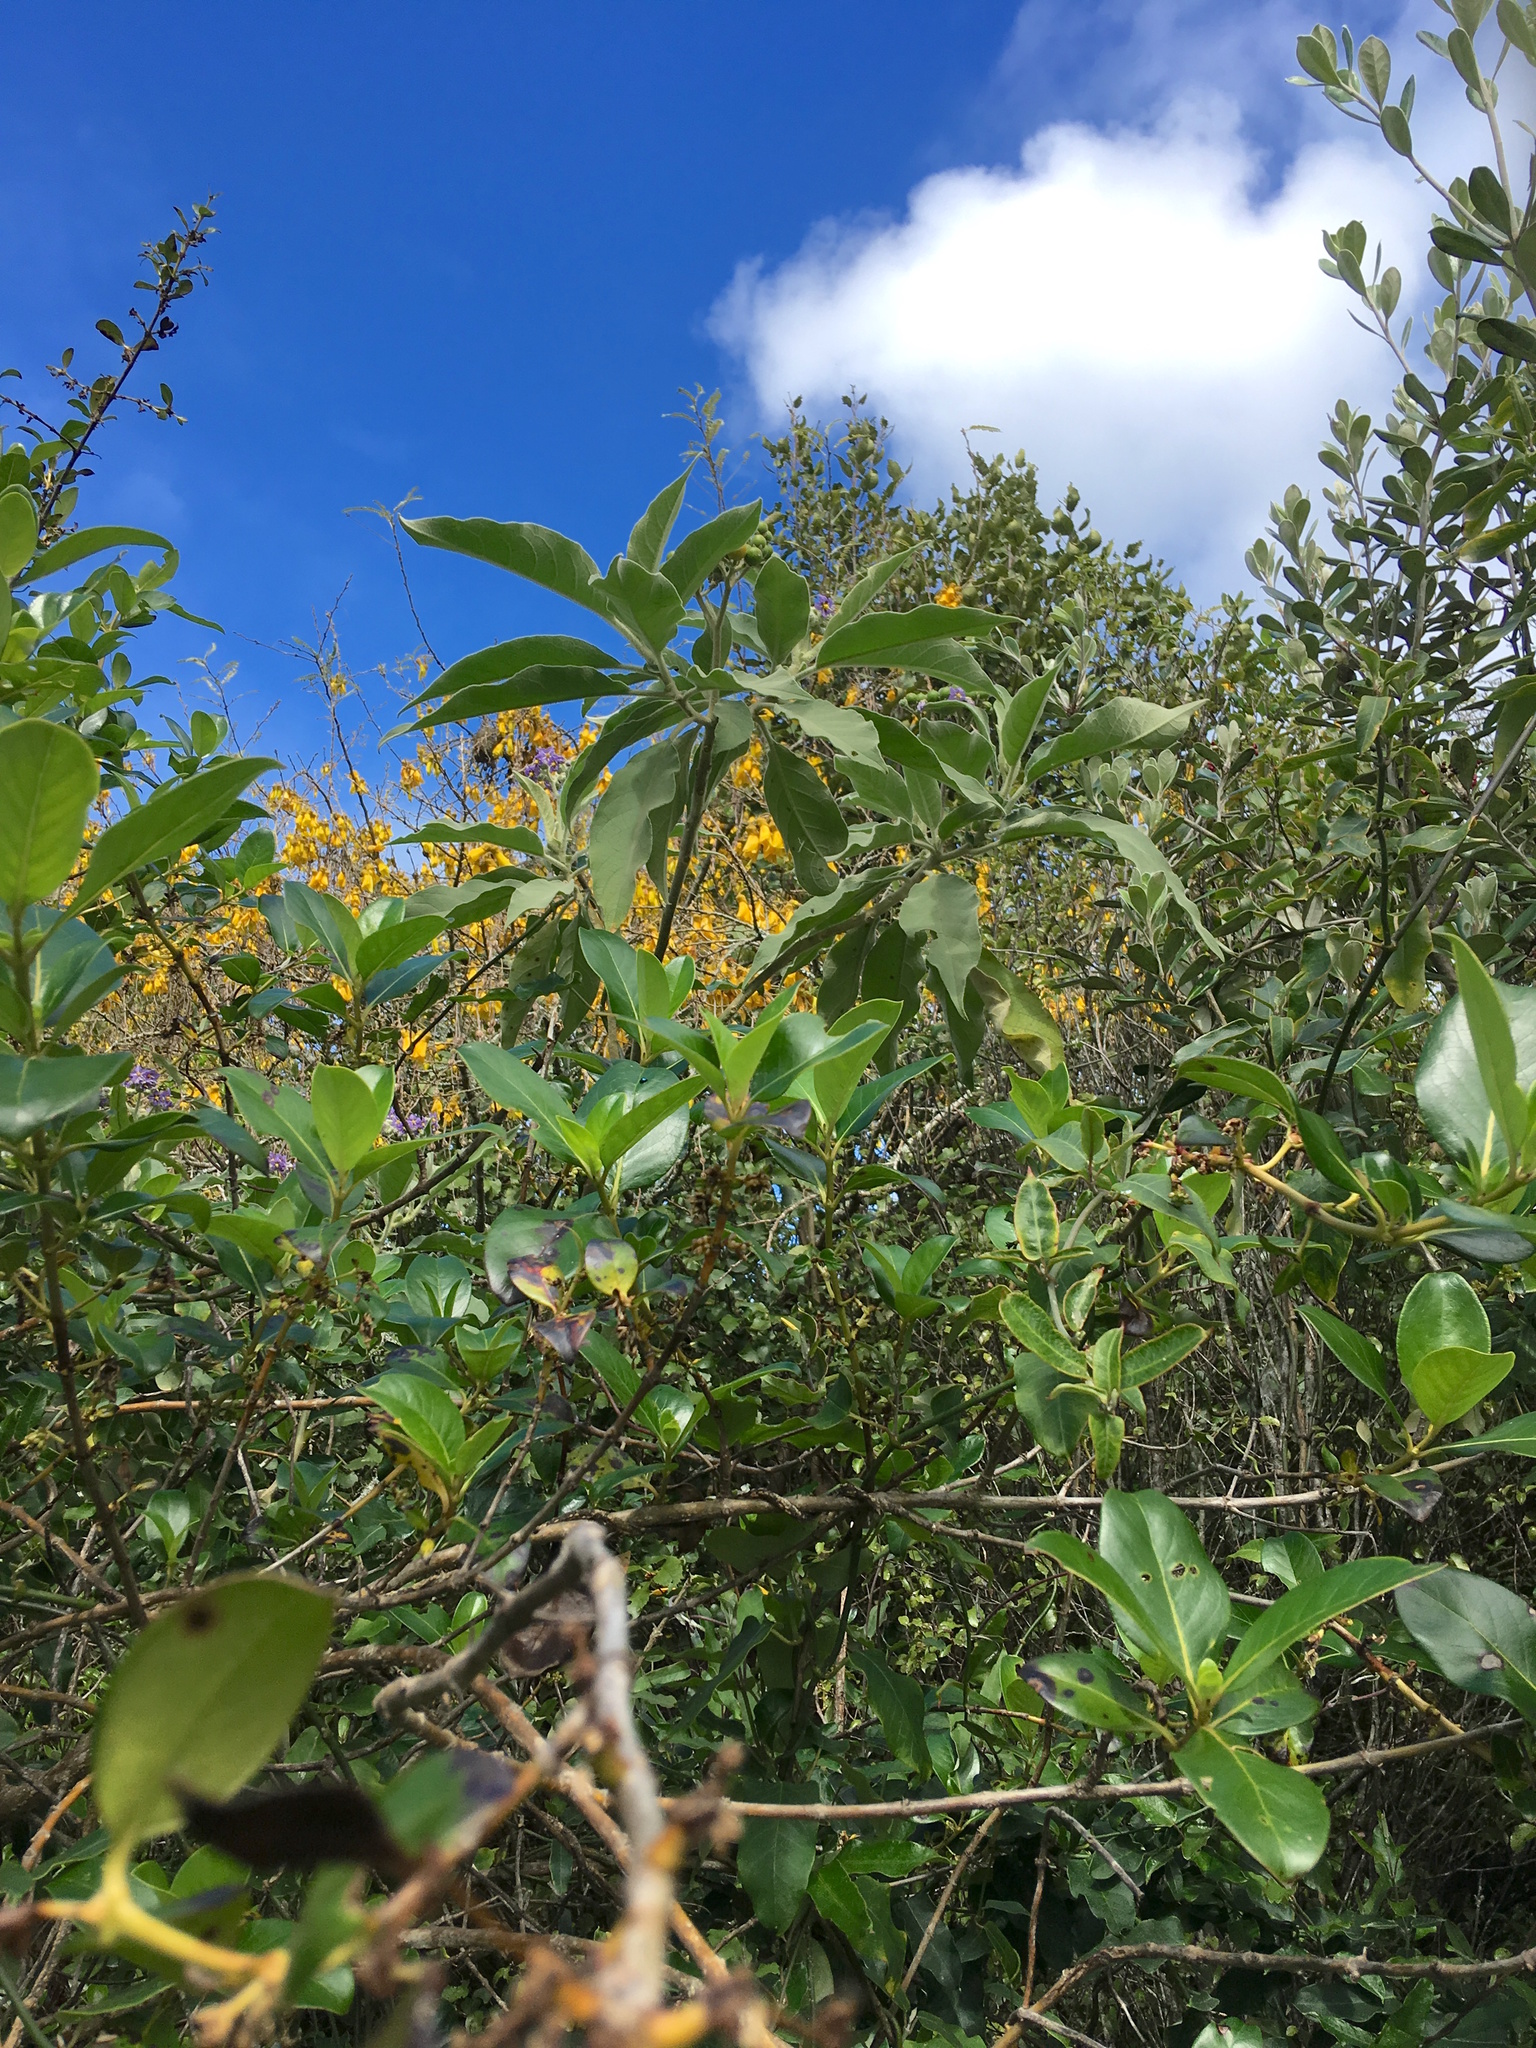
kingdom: Plantae
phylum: Tracheophyta
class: Magnoliopsida
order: Solanales
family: Solanaceae
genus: Solanum
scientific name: Solanum mauritianum
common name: Earleaf nightshade
